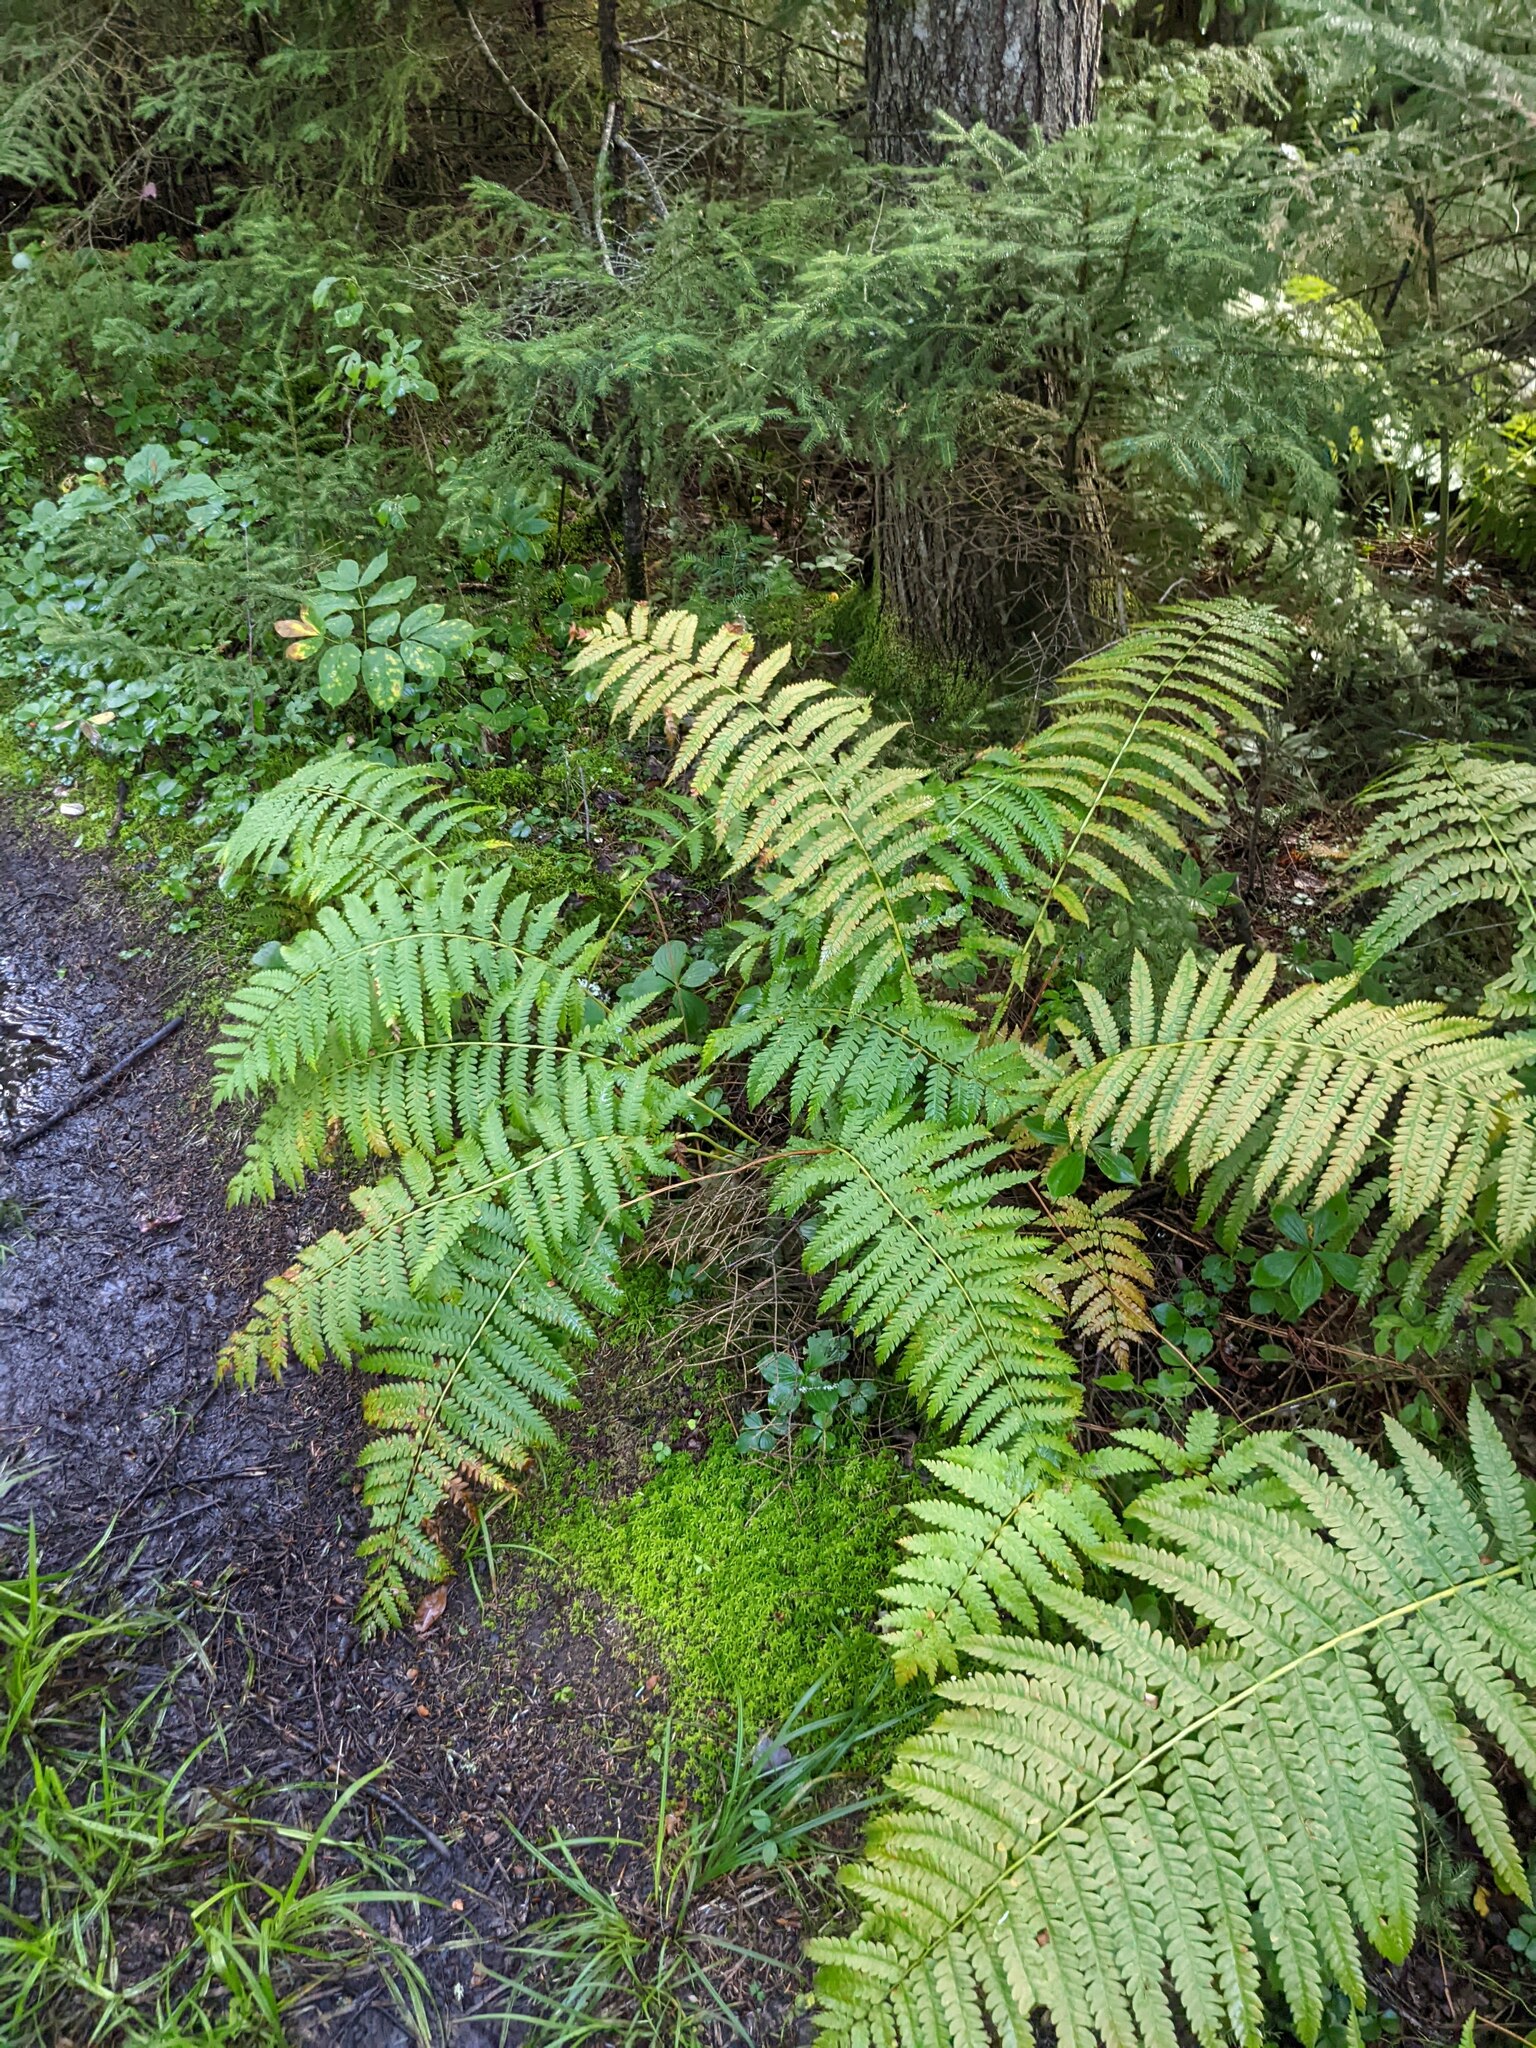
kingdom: Plantae
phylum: Tracheophyta
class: Polypodiopsida
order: Osmundales
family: Osmundaceae
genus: Osmundastrum
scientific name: Osmundastrum cinnamomeum
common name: Cinnamon fern
